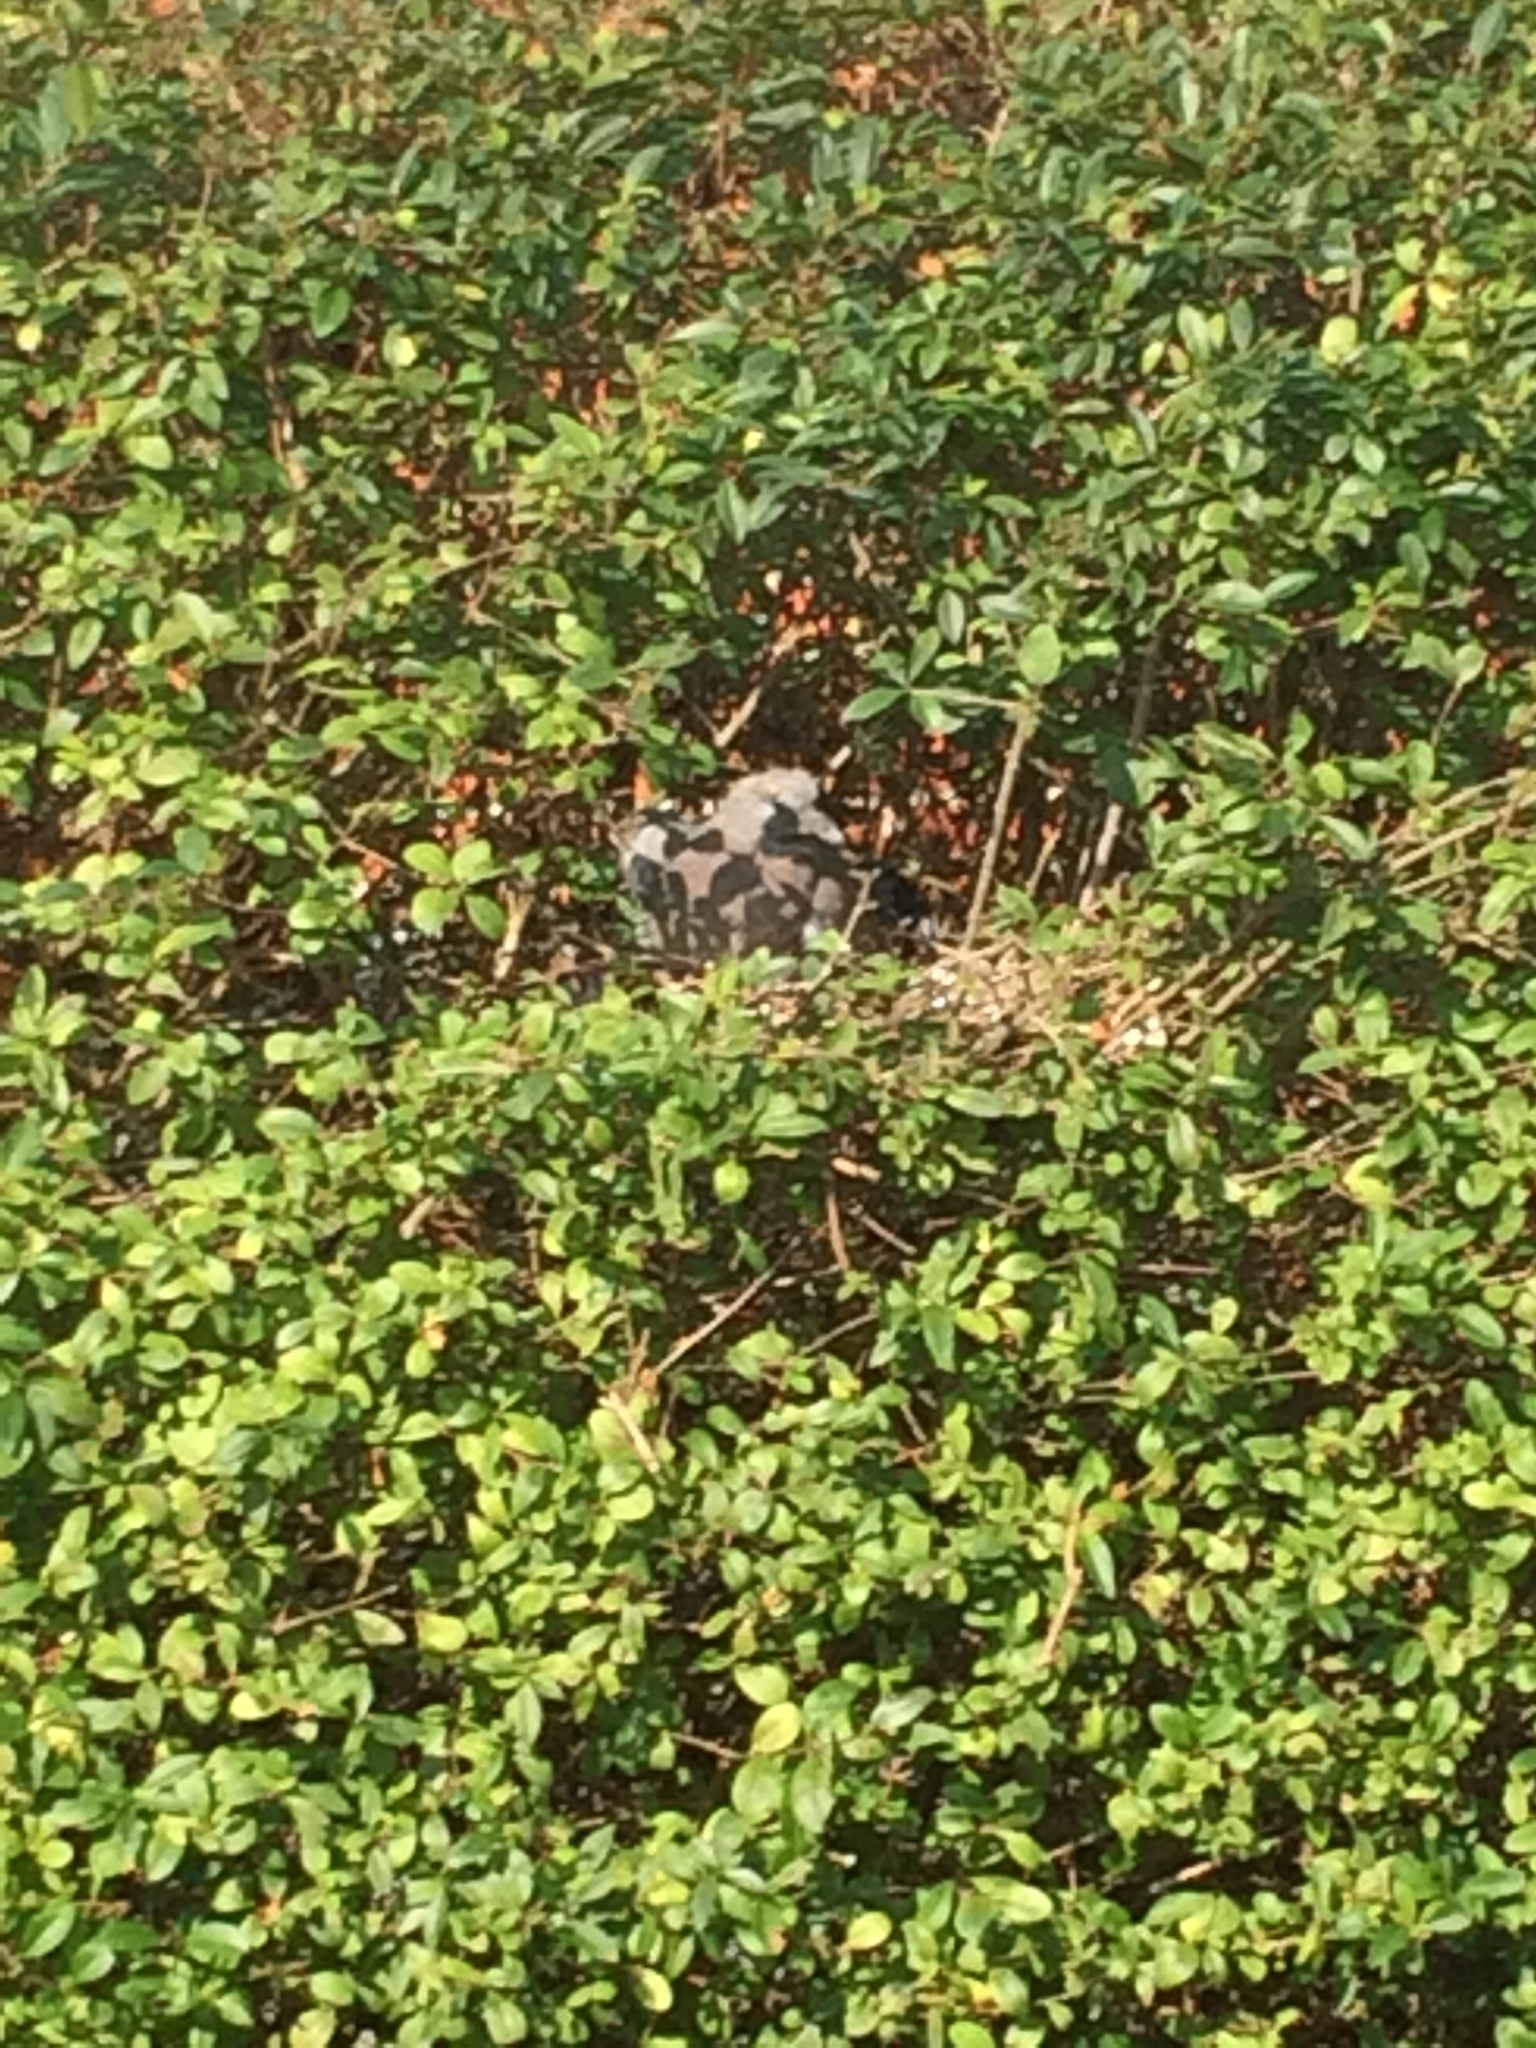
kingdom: Animalia
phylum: Chordata
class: Aves
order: Columbiformes
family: Columbidae
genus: Columba
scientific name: Columba palumbus
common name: Common wood pigeon
